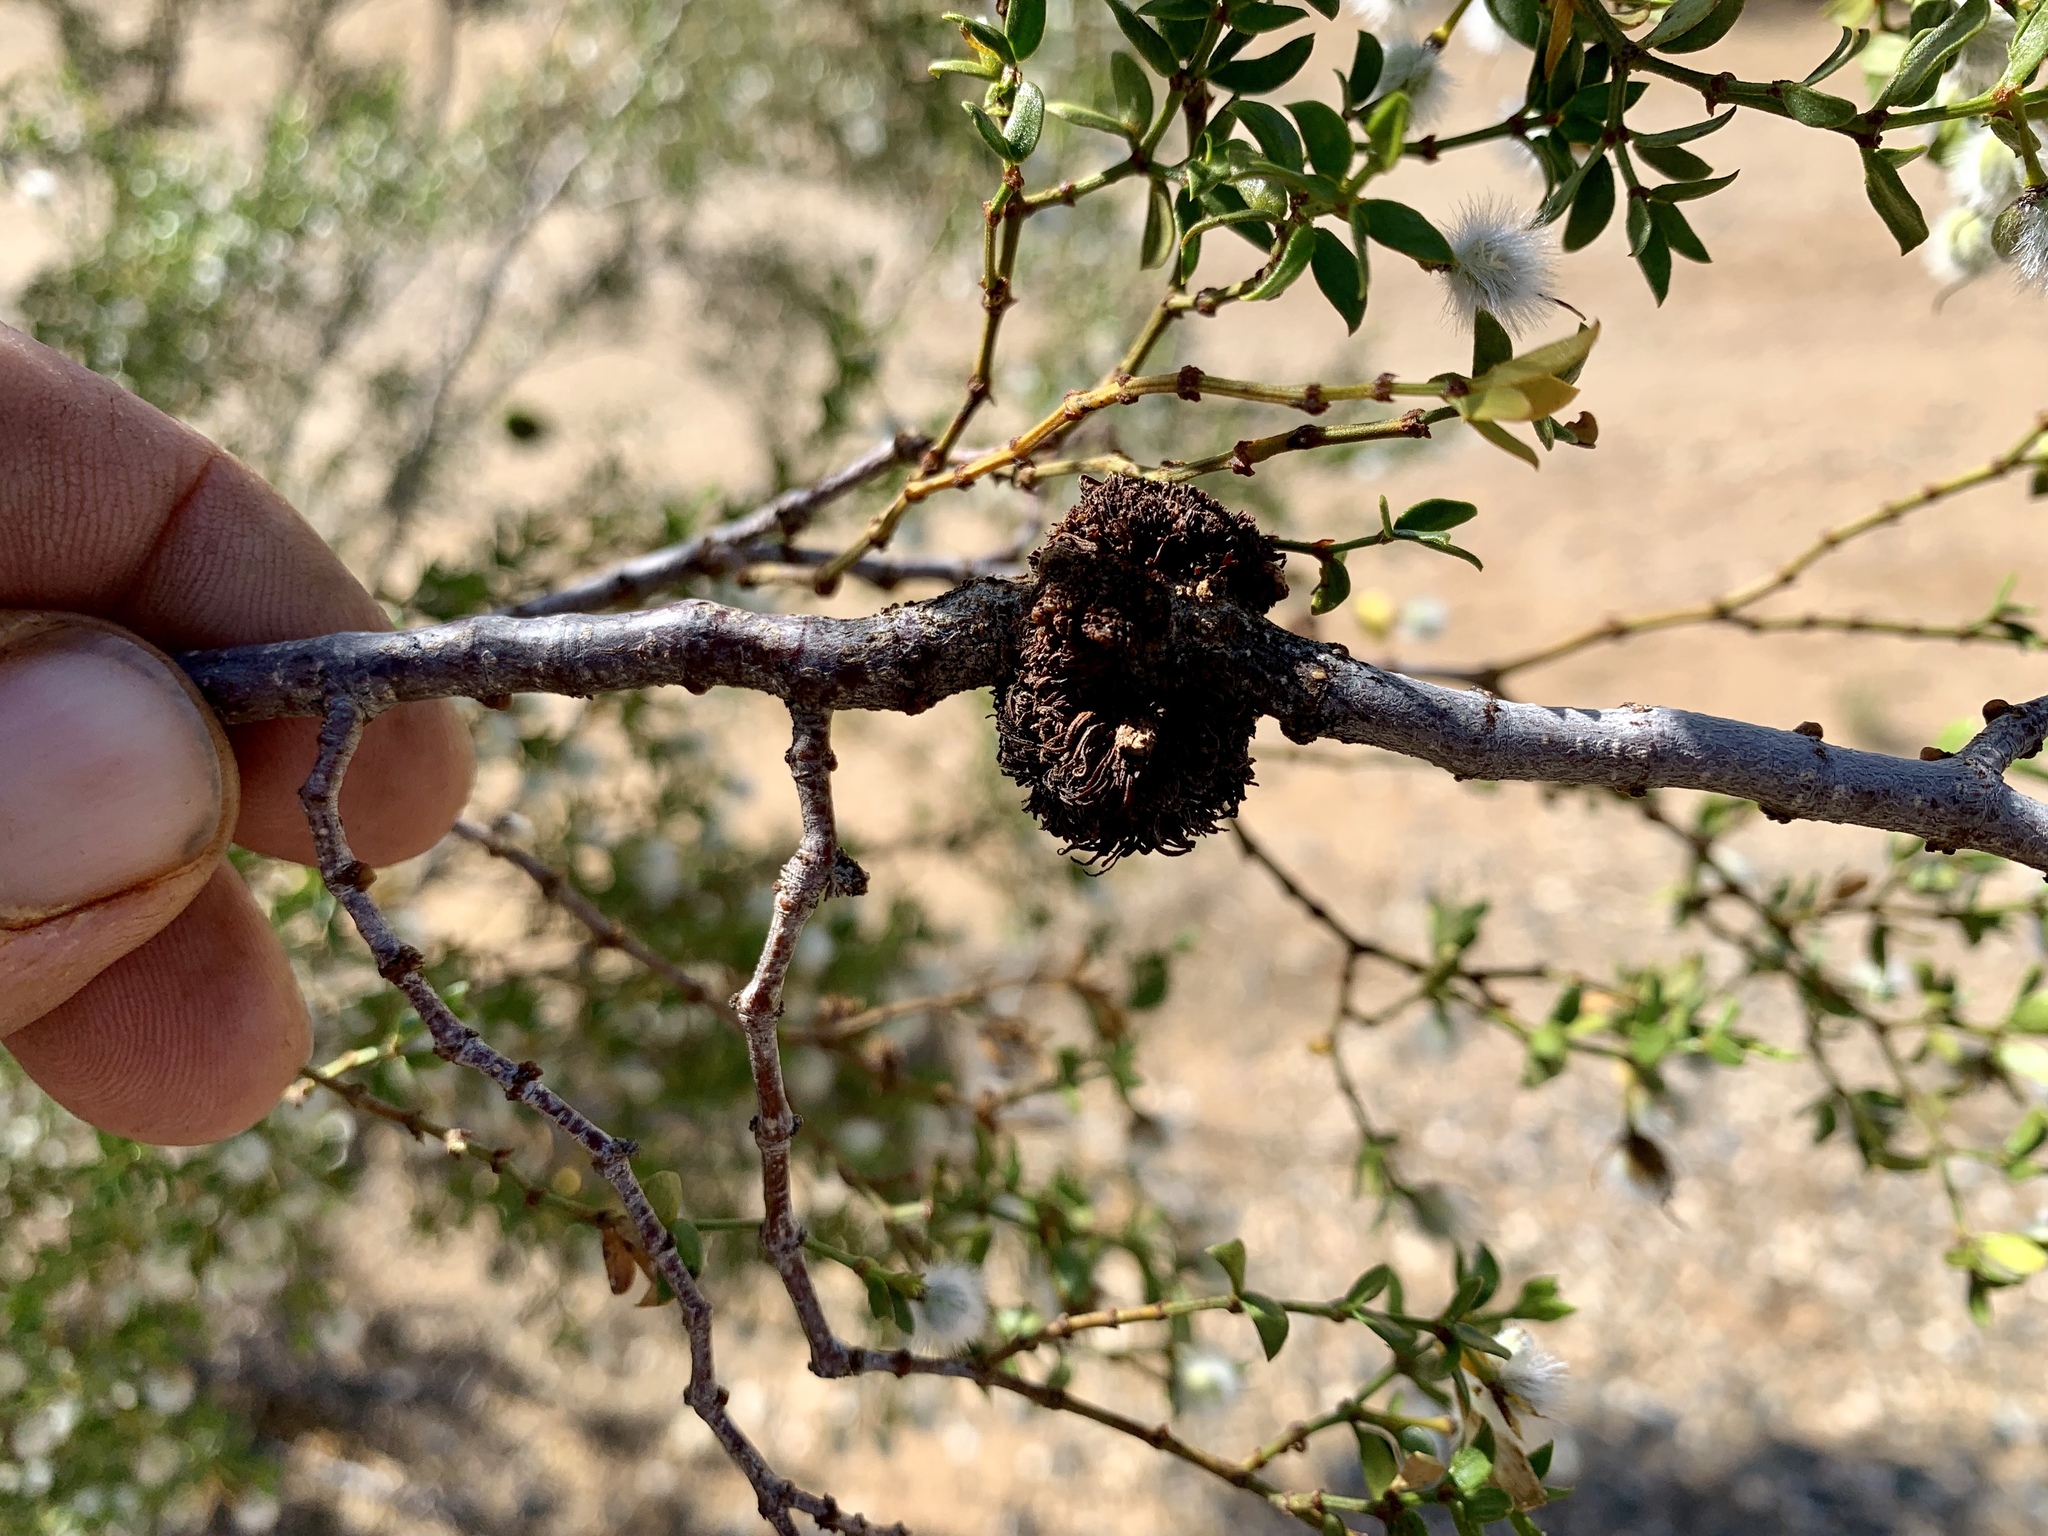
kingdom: Animalia
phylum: Arthropoda
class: Insecta
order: Diptera
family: Cecidomyiidae
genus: Asphondylia
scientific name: Asphondylia auripila
